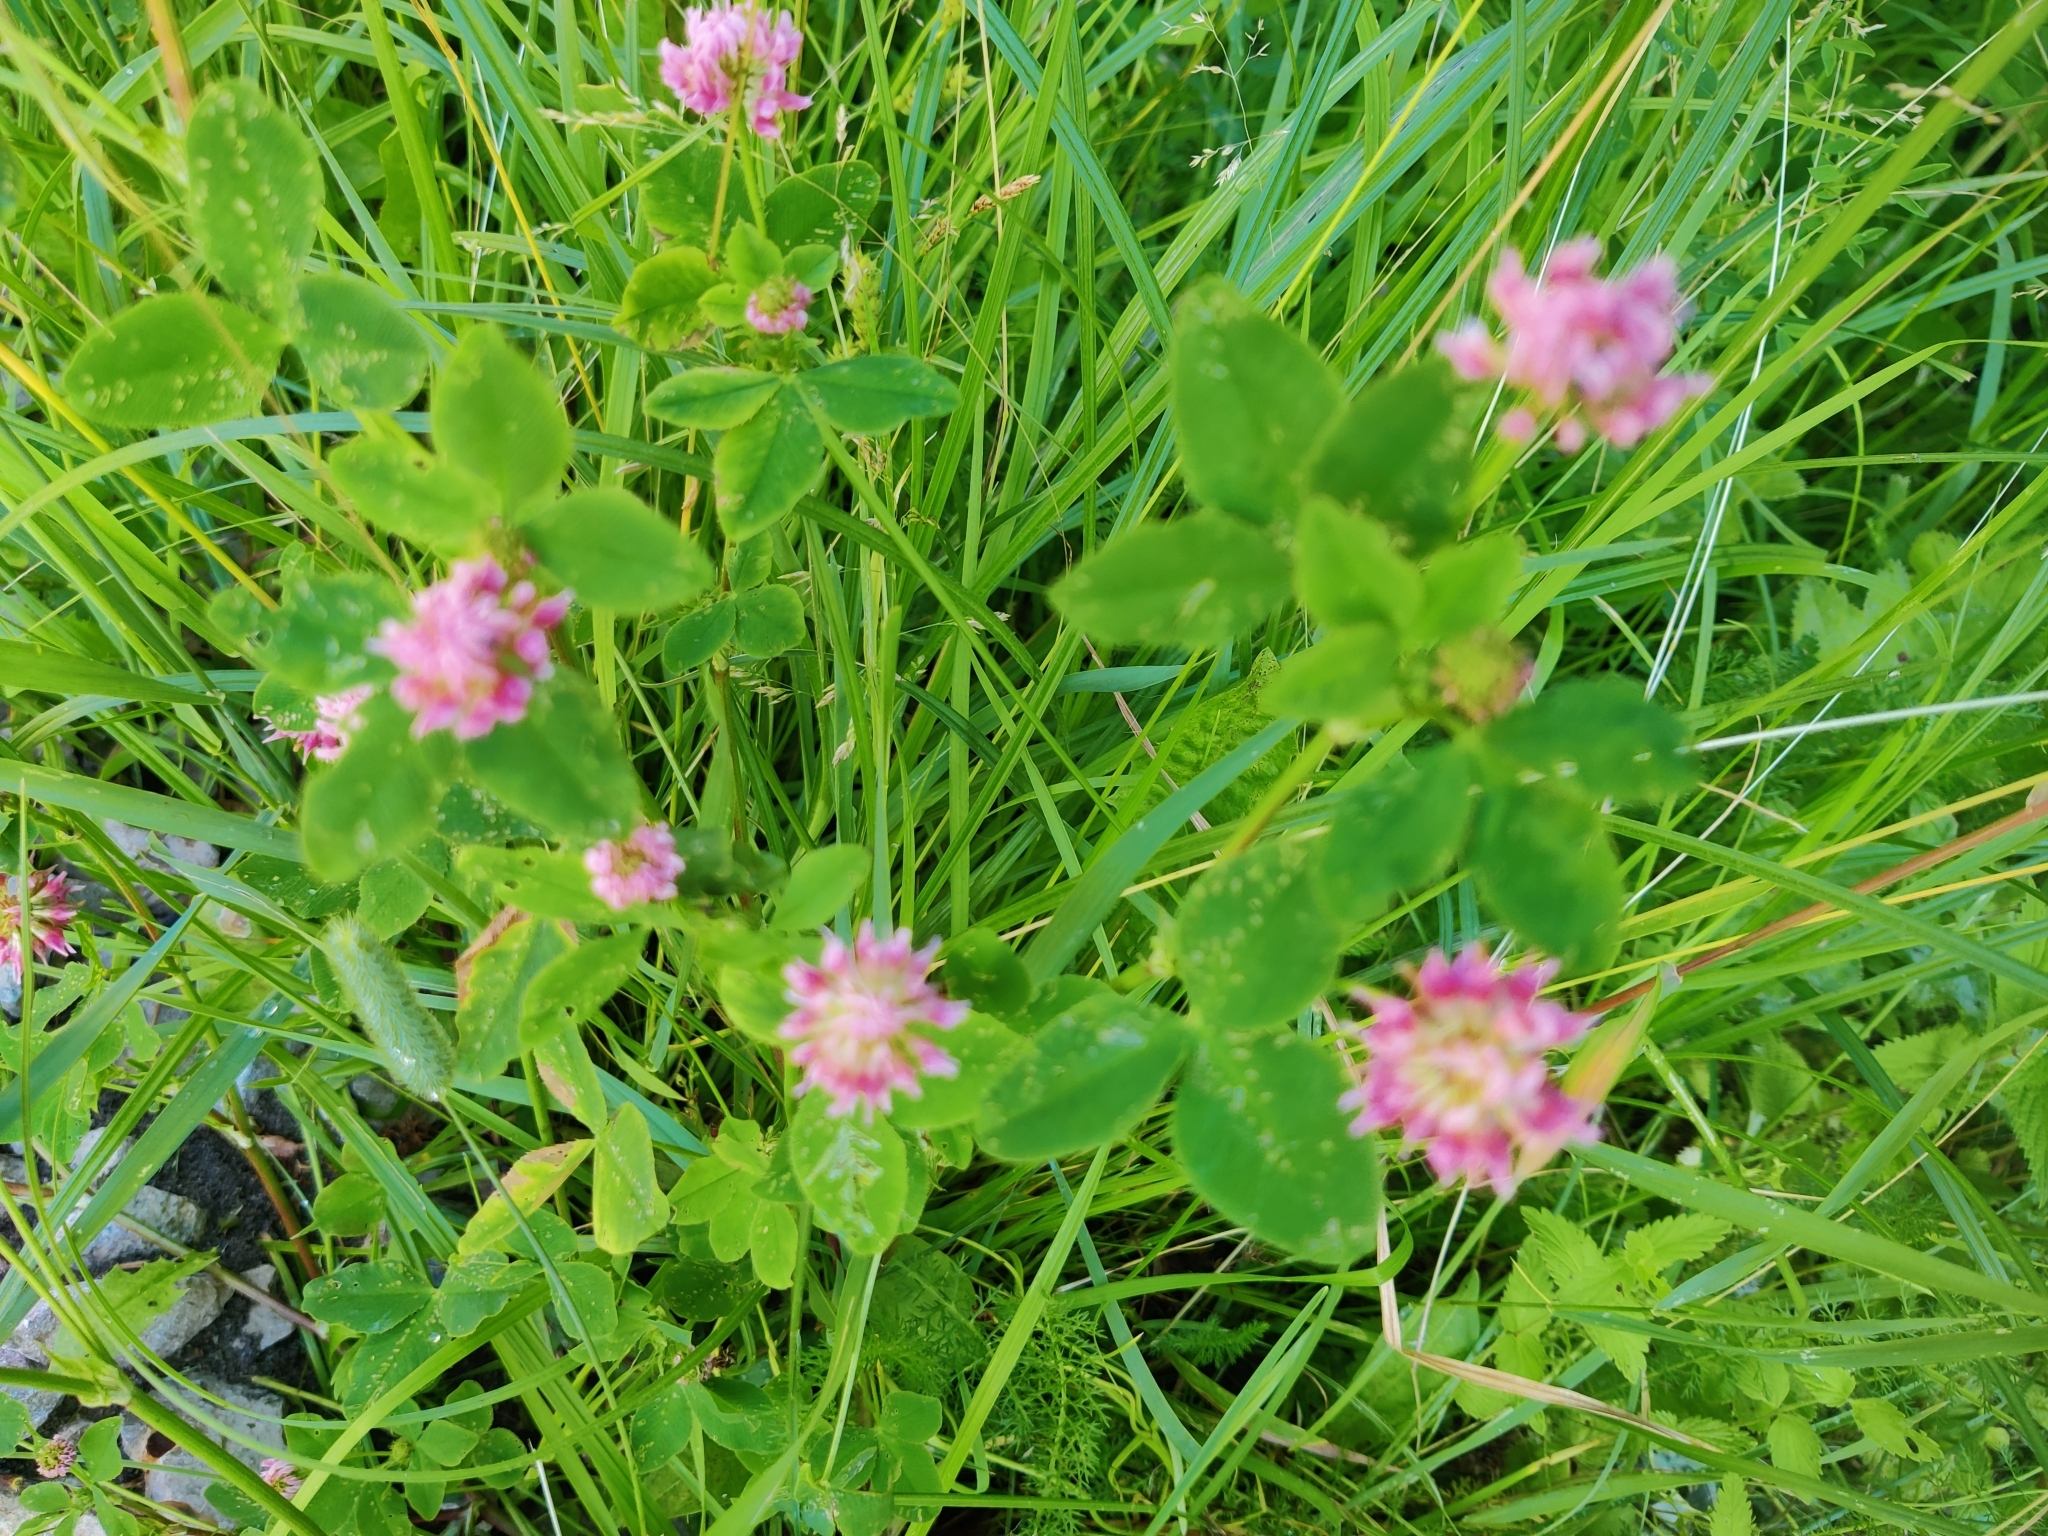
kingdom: Plantae
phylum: Tracheophyta
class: Magnoliopsida
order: Fabales
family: Fabaceae
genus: Trifolium
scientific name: Trifolium hybridum
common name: Alsike clover
